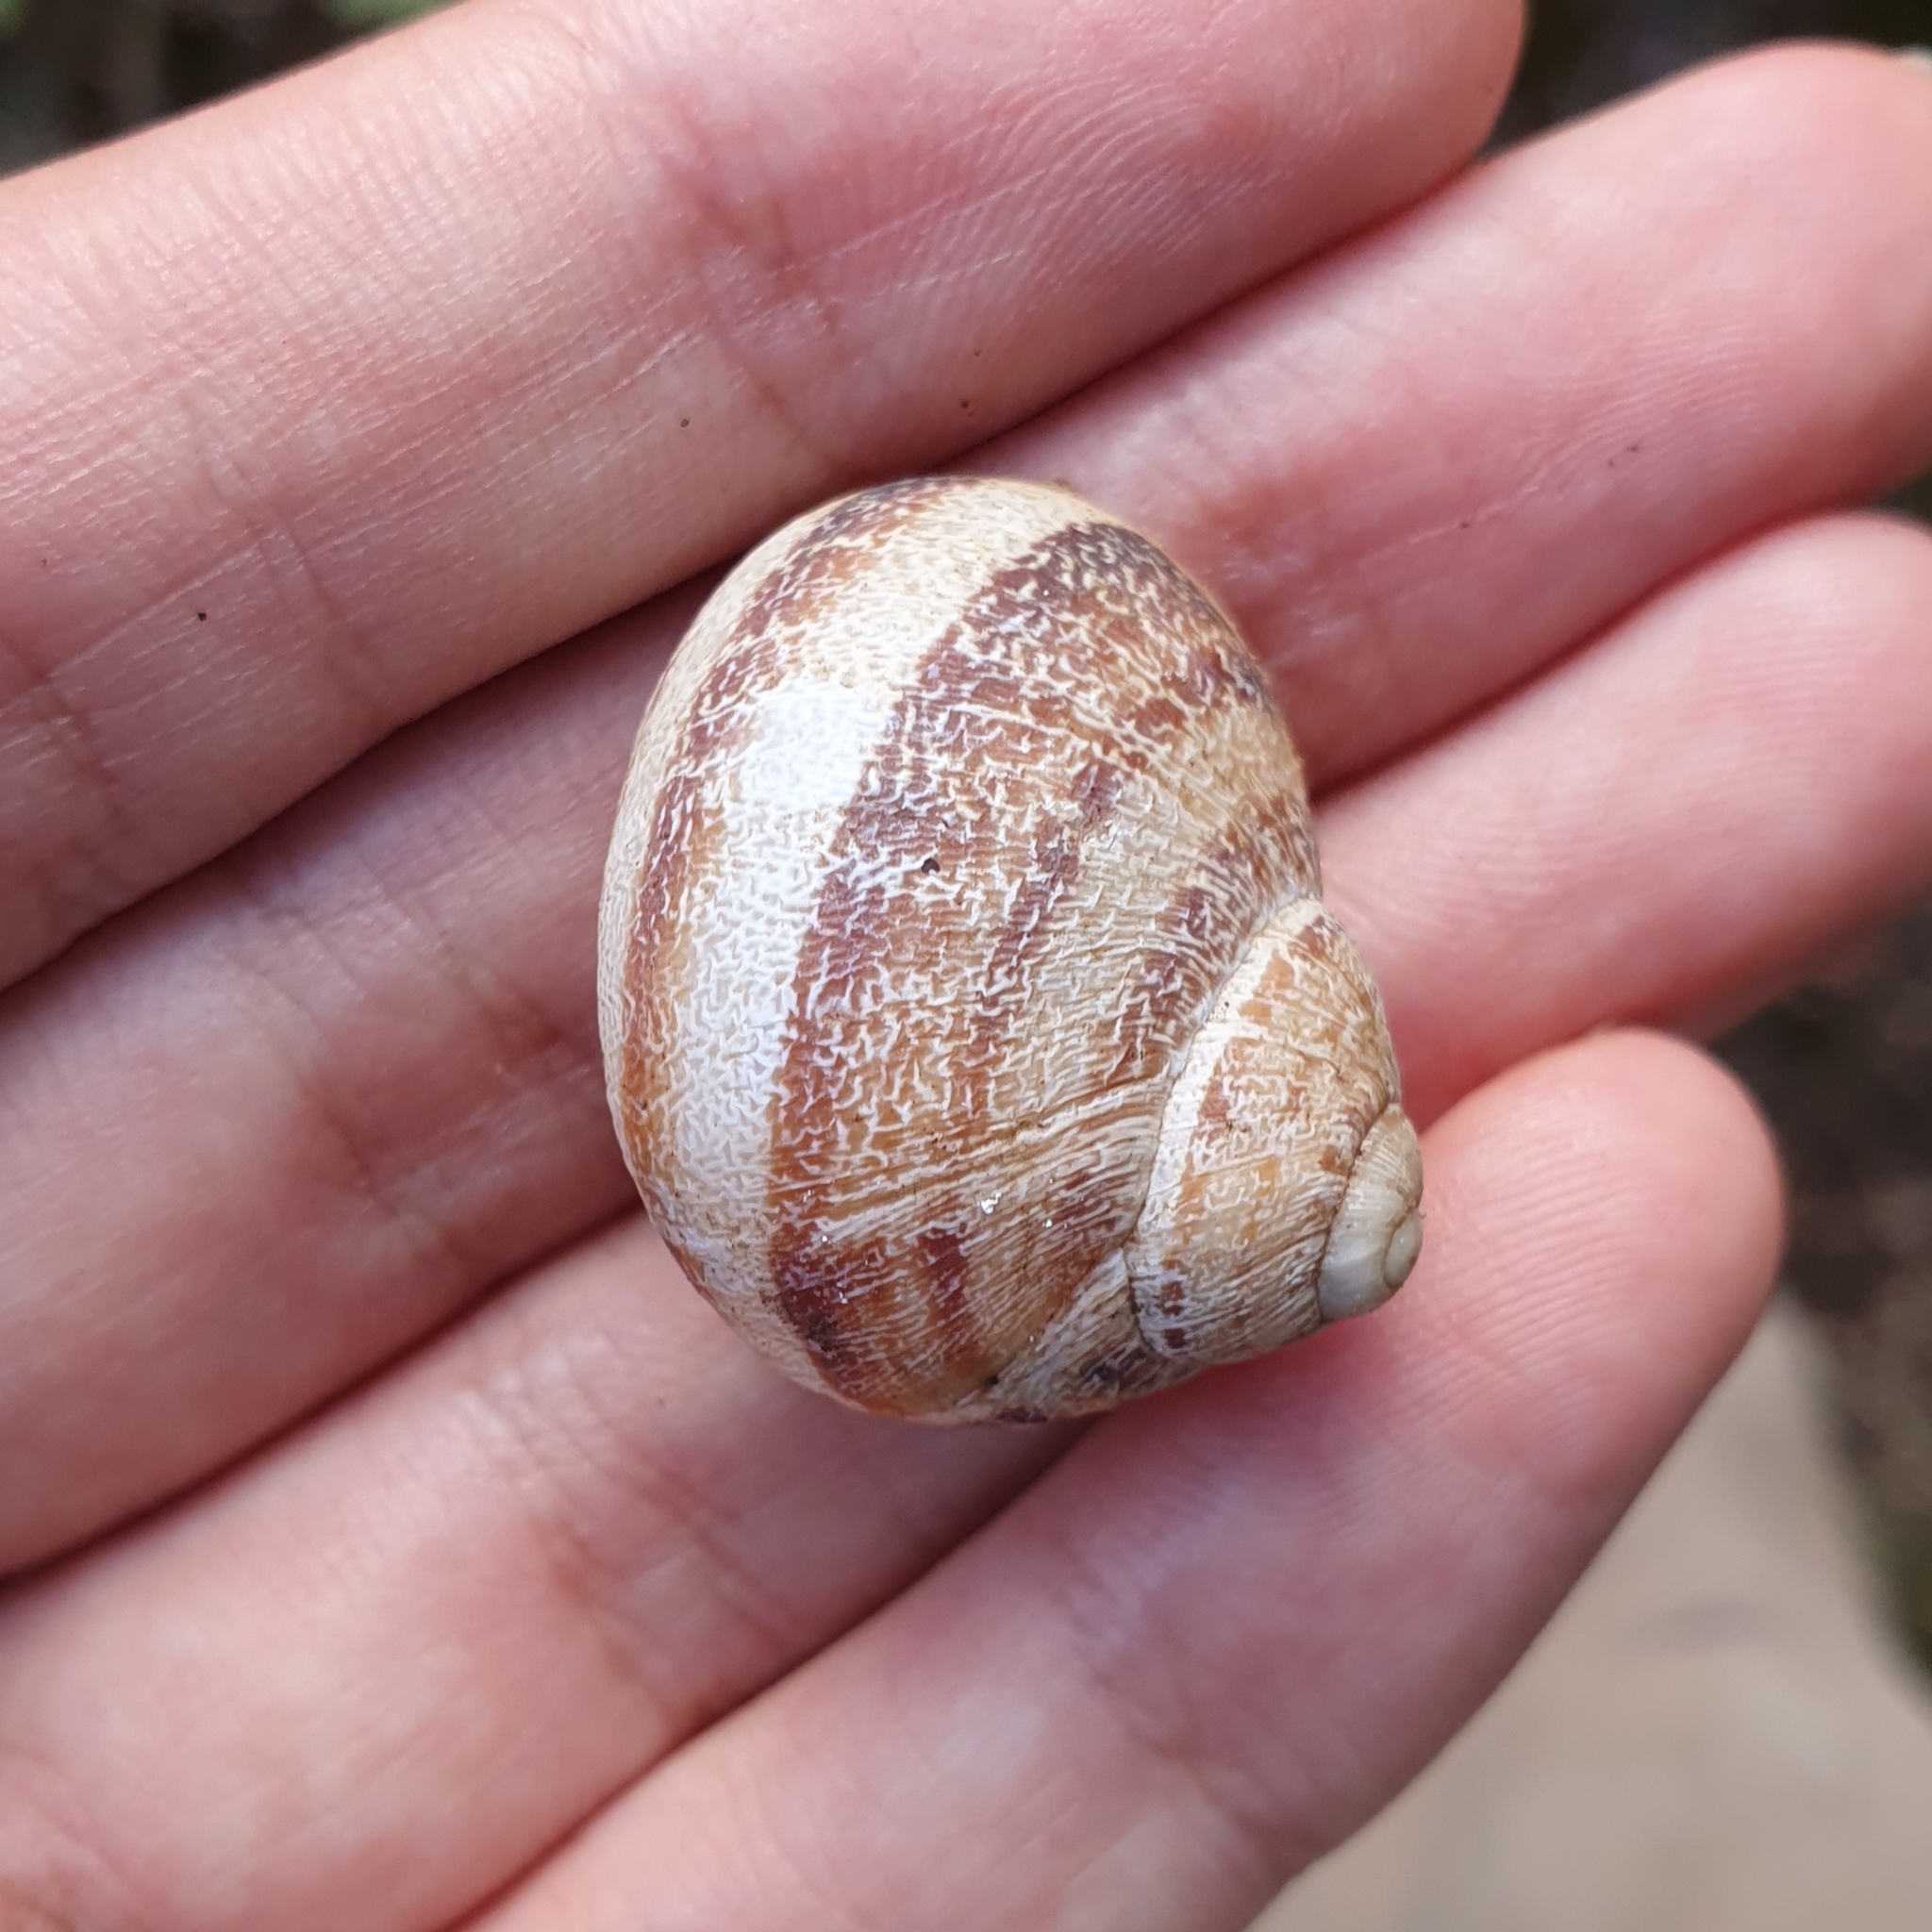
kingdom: Animalia
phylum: Mollusca
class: Gastropoda
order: Stylommatophora
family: Helicidae
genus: Cornu
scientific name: Cornu aspersum
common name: Brown garden snail
